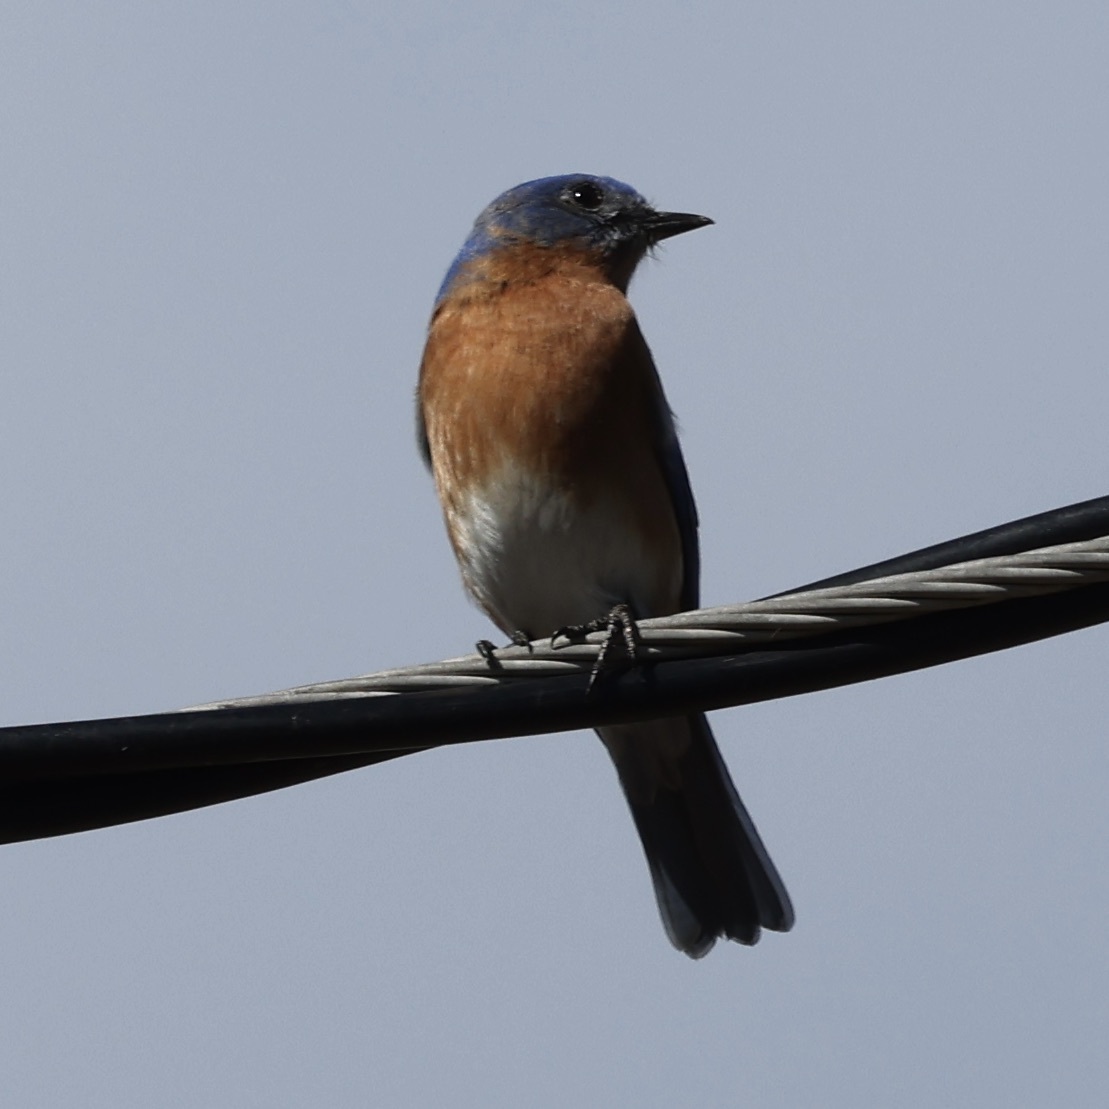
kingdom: Animalia
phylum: Chordata
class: Aves
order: Passeriformes
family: Turdidae
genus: Sialia
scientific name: Sialia sialis
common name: Eastern bluebird
